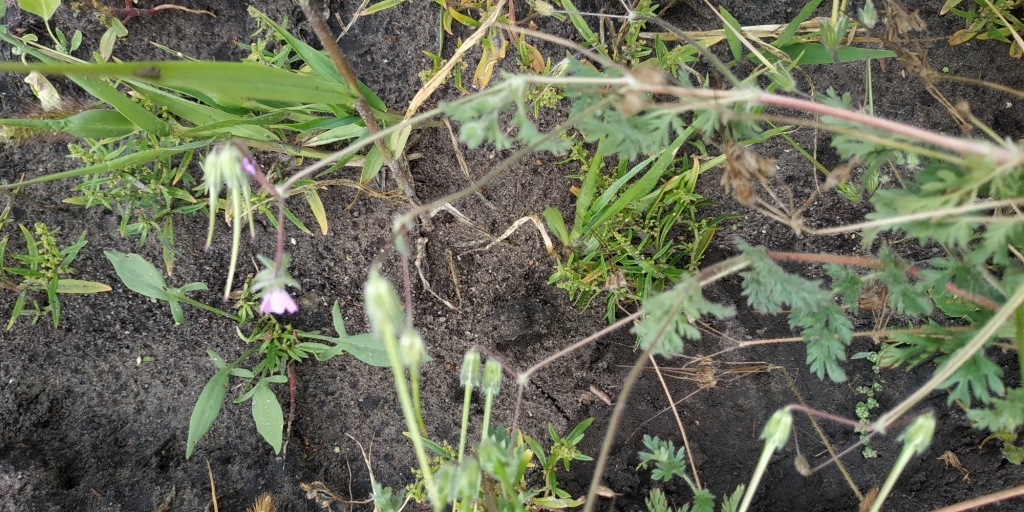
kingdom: Plantae
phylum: Tracheophyta
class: Magnoliopsida
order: Geraniales
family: Geraniaceae
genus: Erodium
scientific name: Erodium cicutarium
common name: Common stork's-bill
